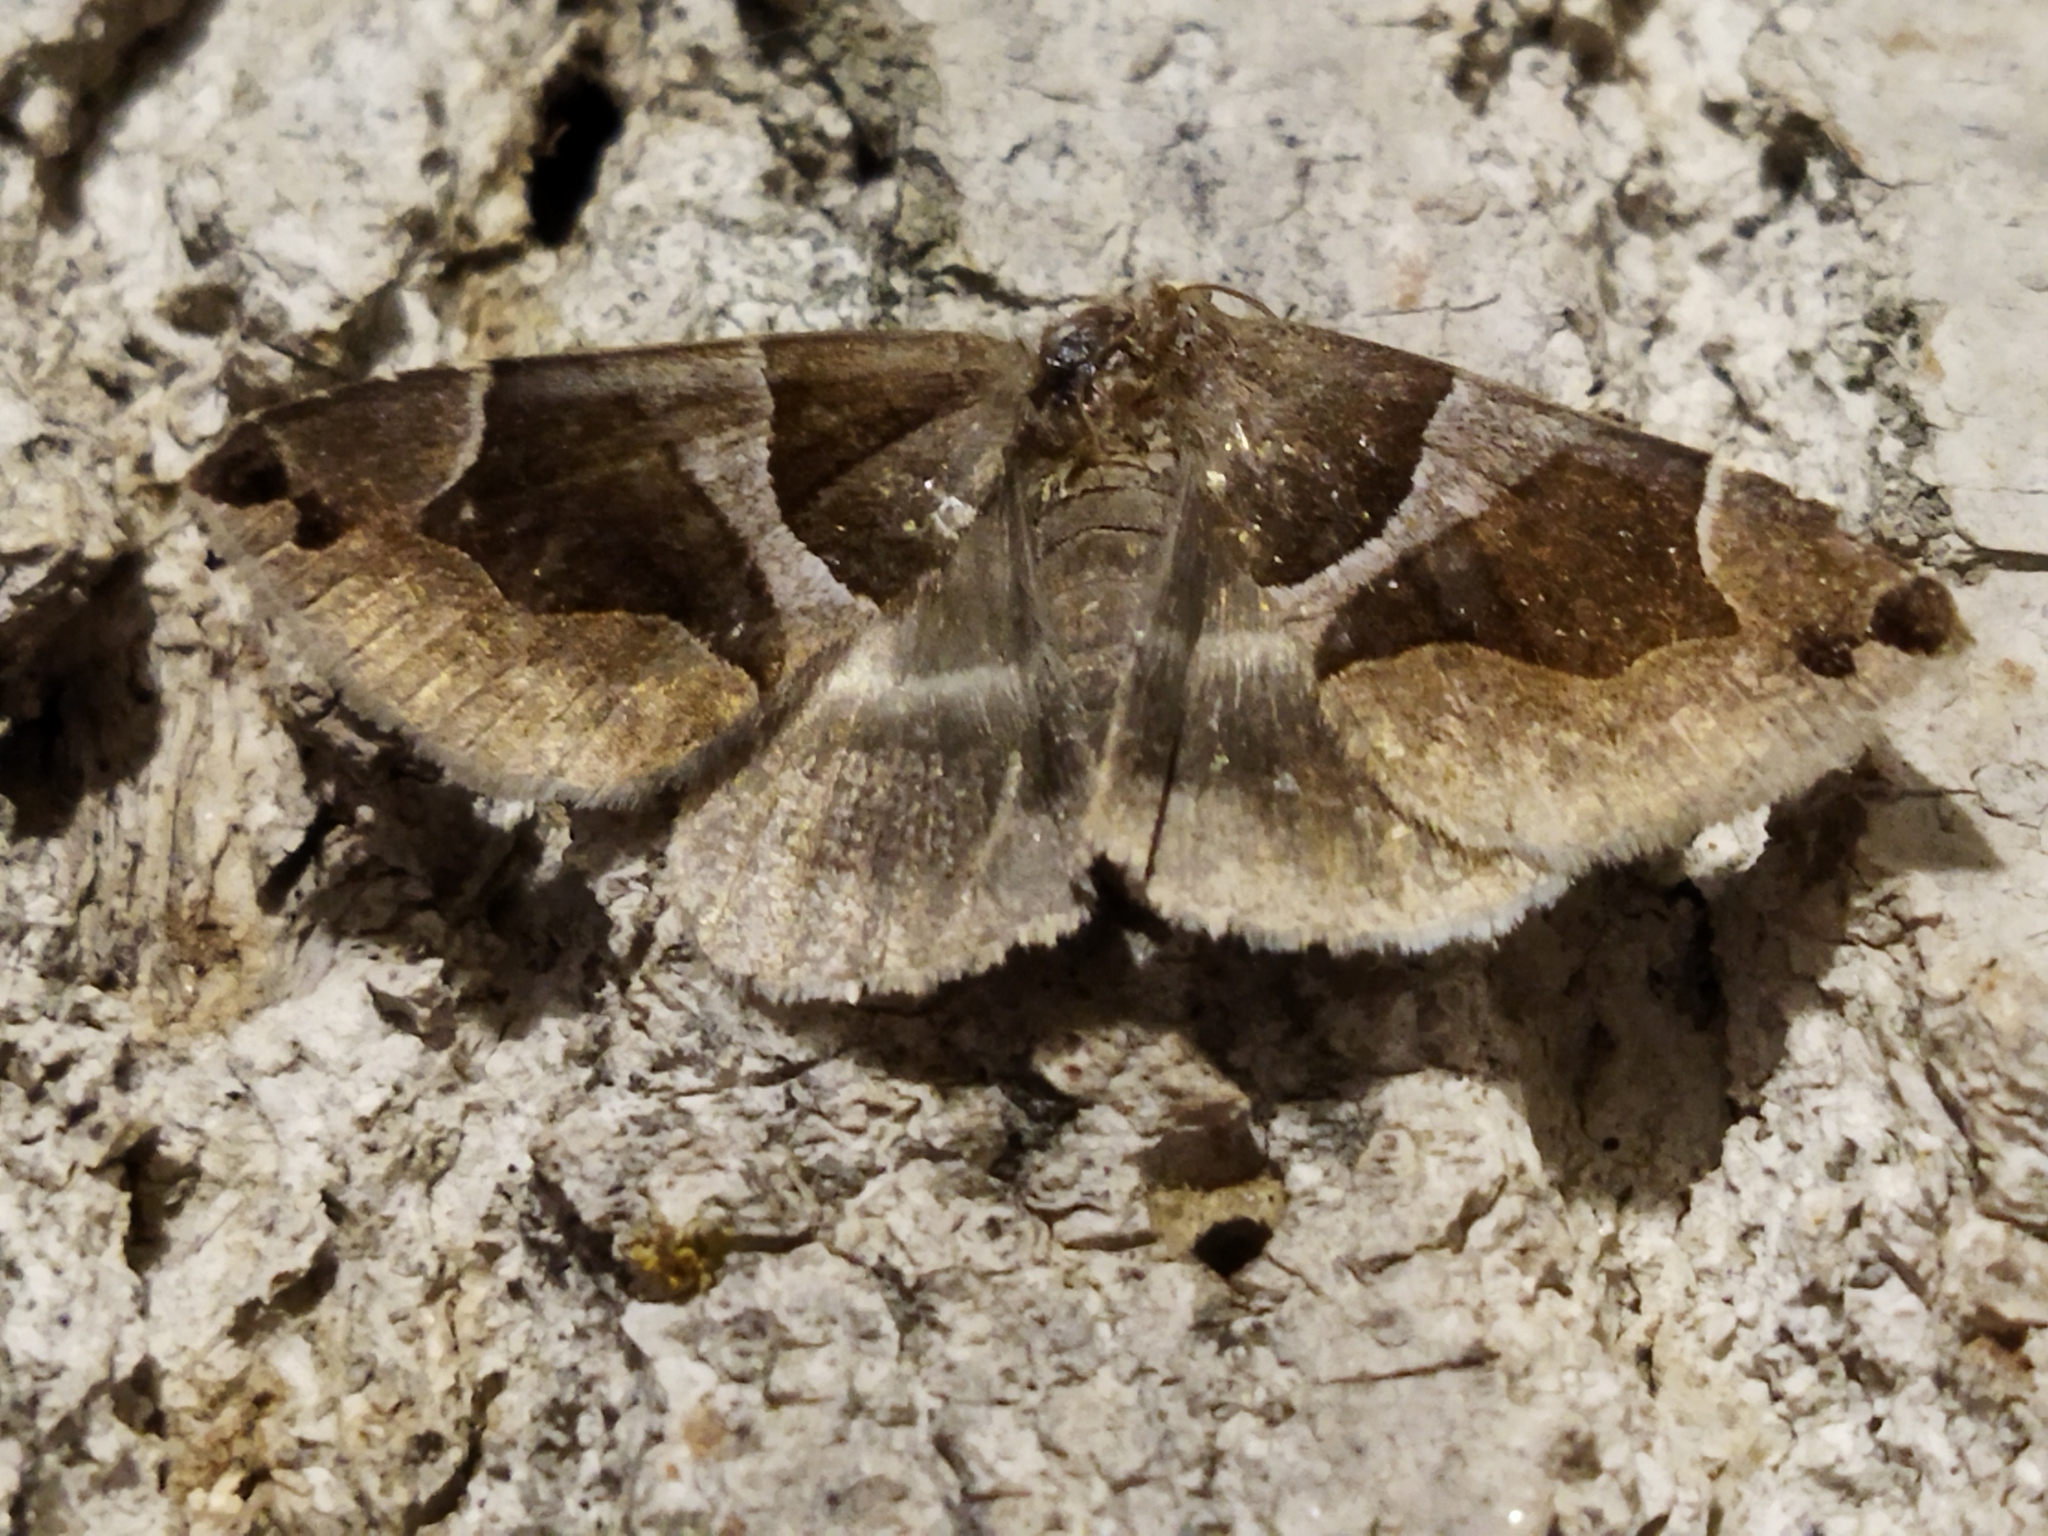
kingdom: Animalia
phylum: Arthropoda
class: Insecta
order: Lepidoptera
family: Erebidae
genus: Dysgonia
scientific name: Dysgonia algira
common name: Passenger
